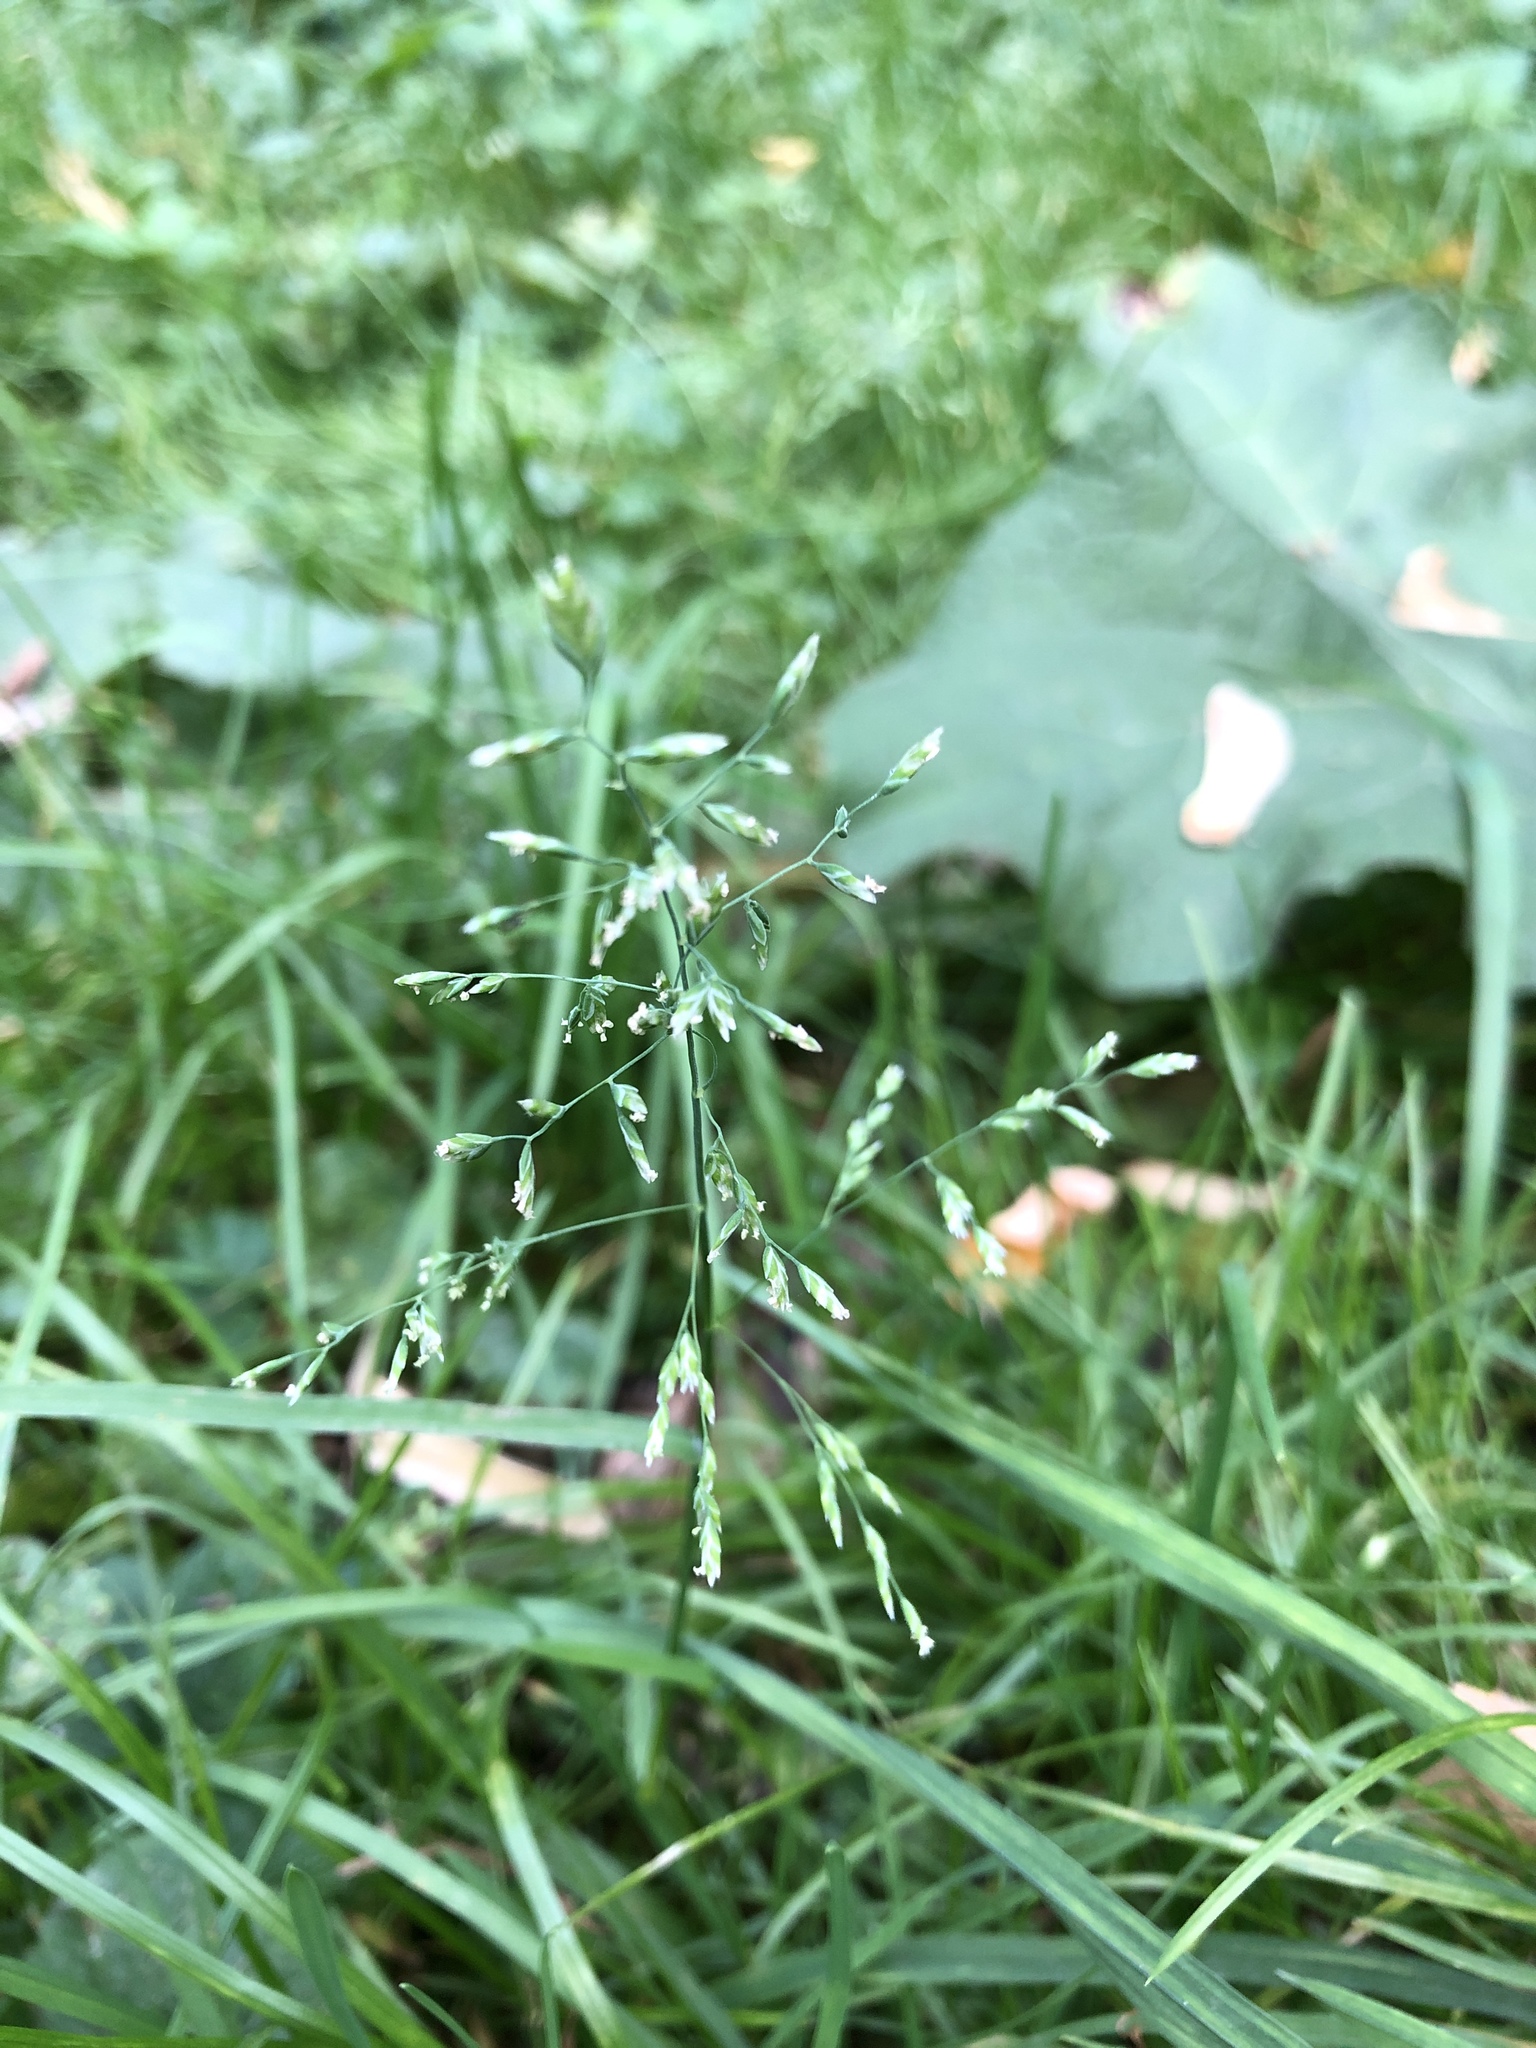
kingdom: Plantae
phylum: Tracheophyta
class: Liliopsida
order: Poales
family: Poaceae
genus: Poa
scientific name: Poa annua
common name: Annual bluegrass
